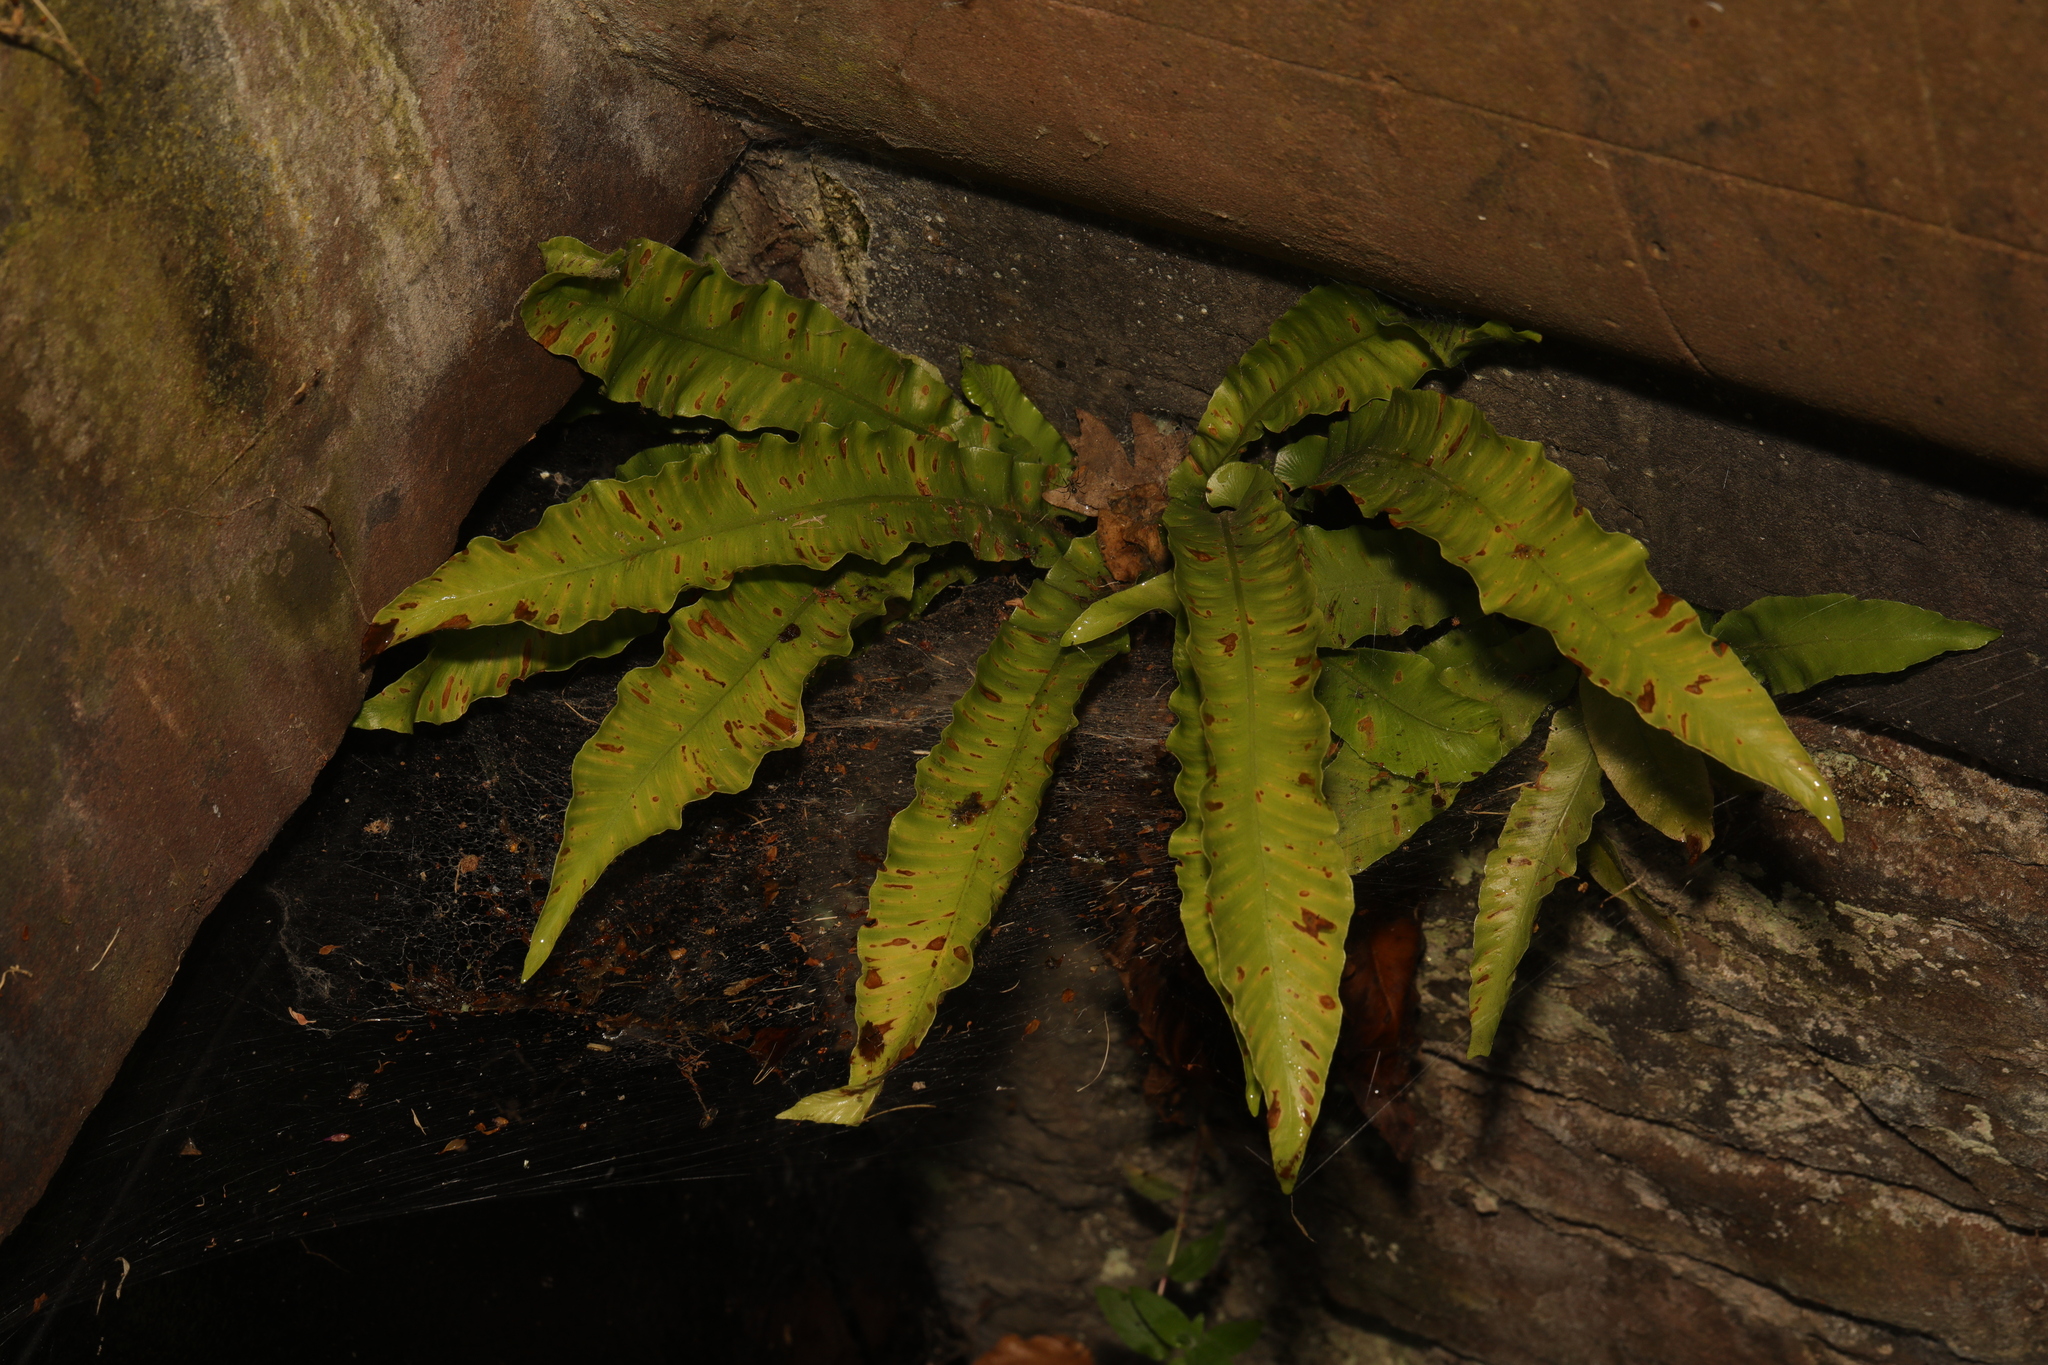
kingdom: Plantae
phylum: Tracheophyta
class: Polypodiopsida
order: Polypodiales
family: Aspleniaceae
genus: Asplenium
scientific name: Asplenium scolopendrium
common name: Hart's-tongue fern
